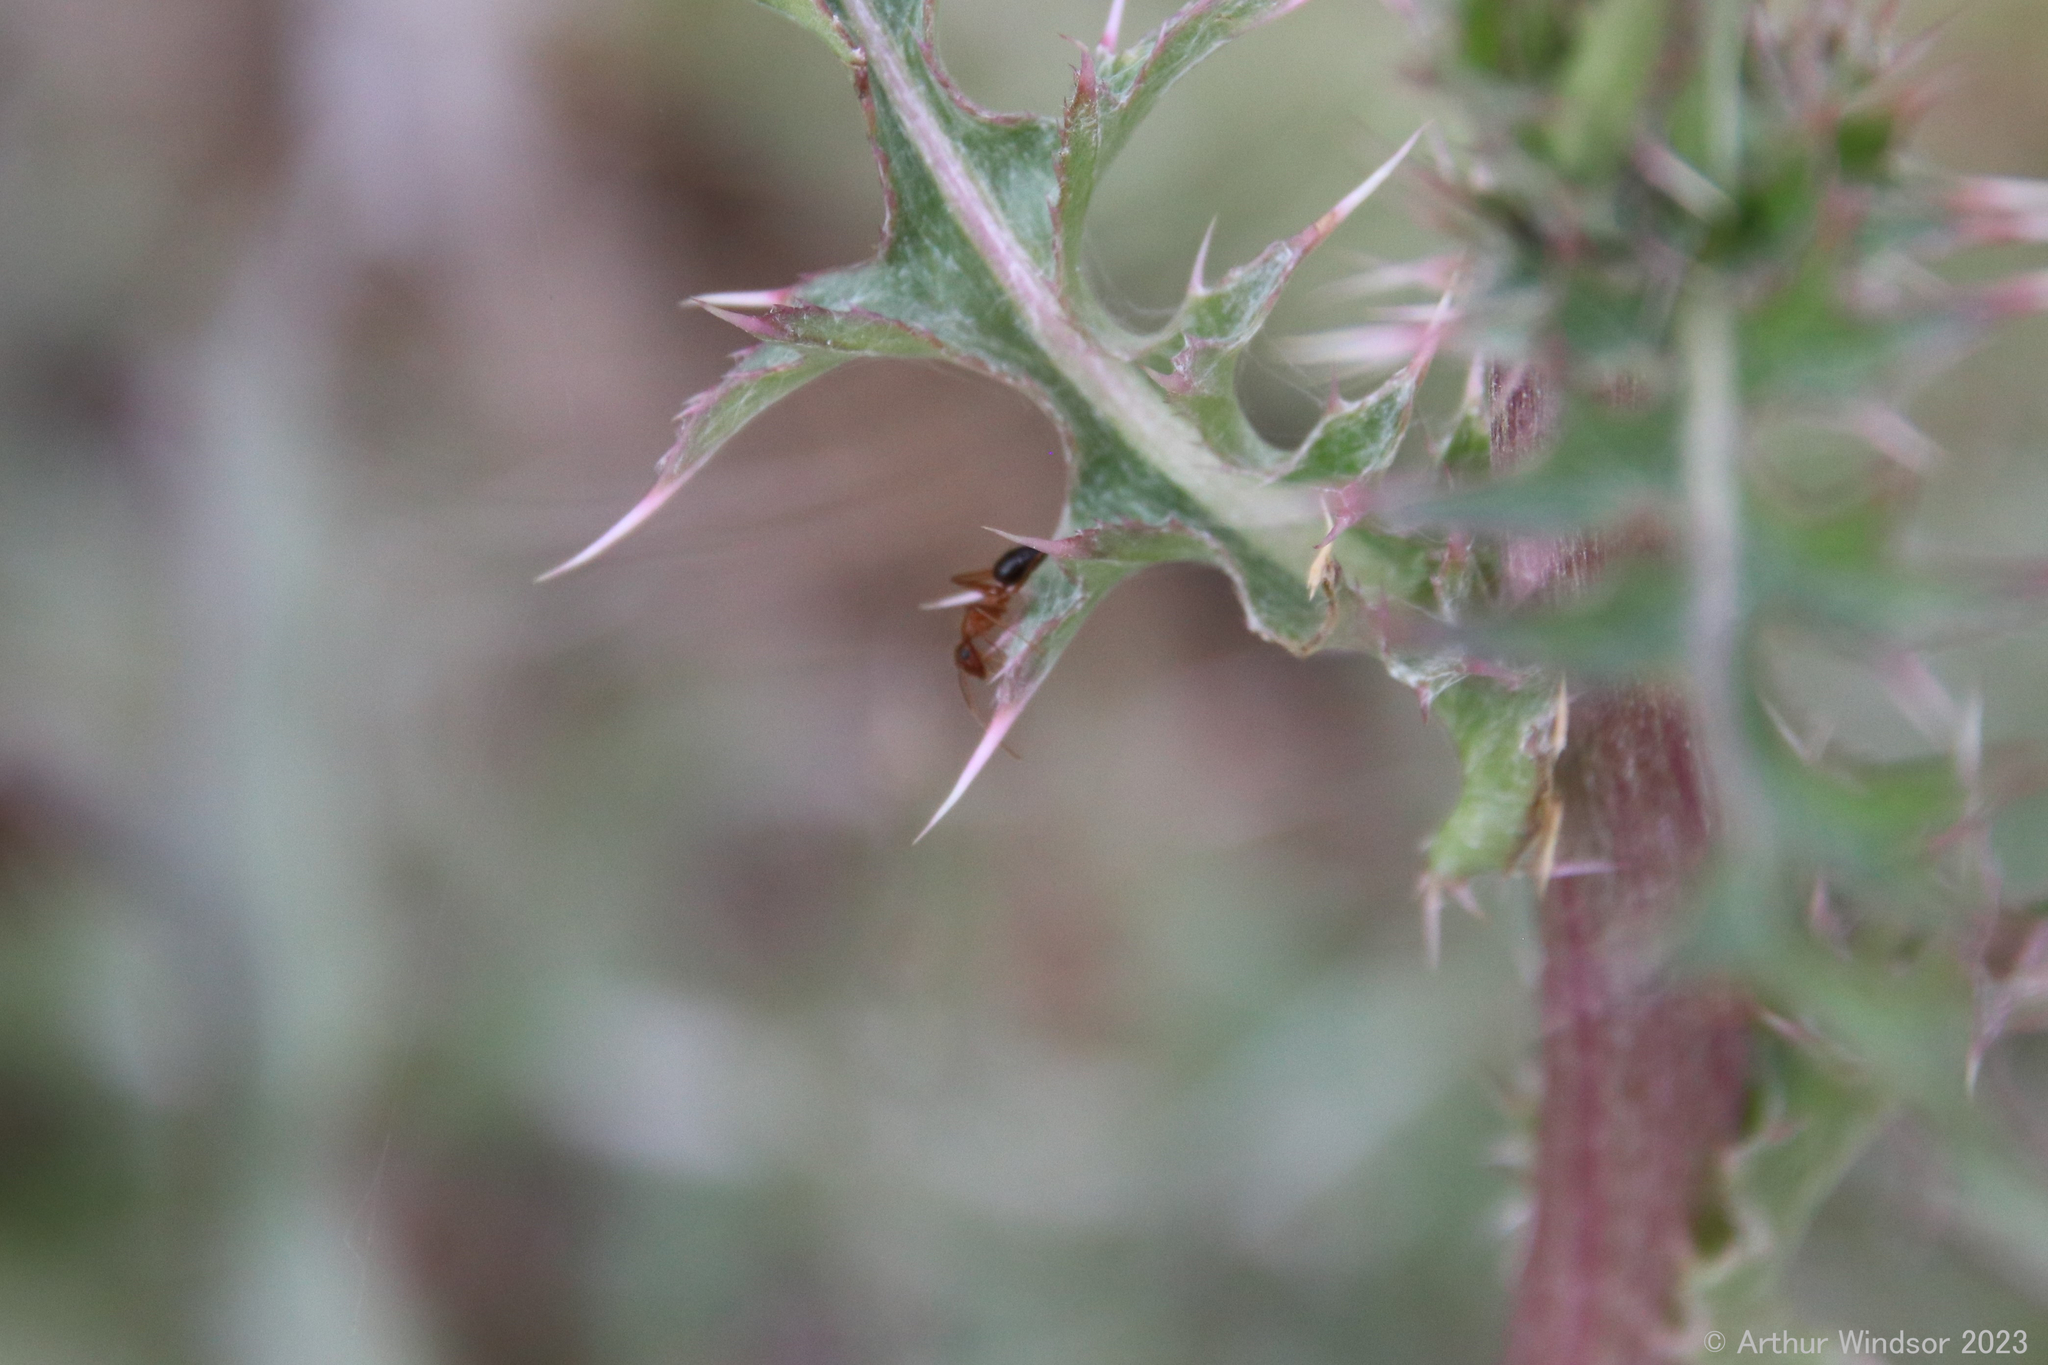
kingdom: Animalia
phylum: Arthropoda
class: Insecta
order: Hymenoptera
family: Formicidae
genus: Camponotus
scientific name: Camponotus floridanus
